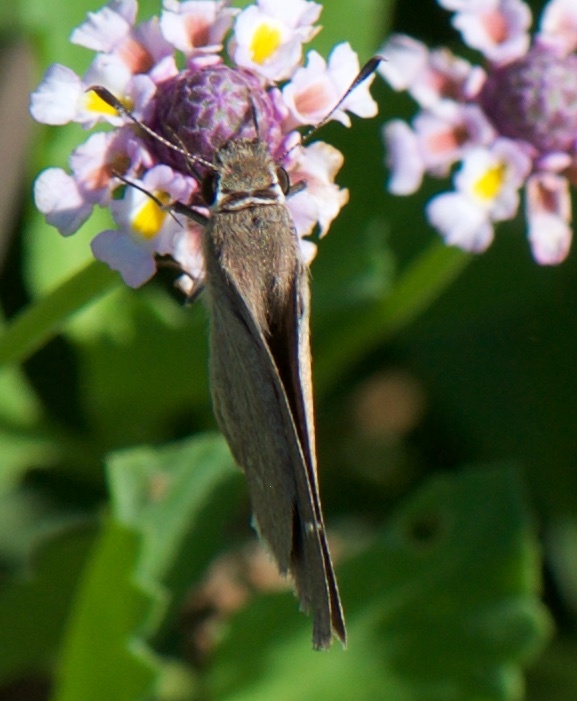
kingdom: Animalia
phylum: Arthropoda
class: Insecta
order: Lepidoptera
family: Hesperiidae
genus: Lerodea
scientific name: Lerodea eufala
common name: Eufala skipper
